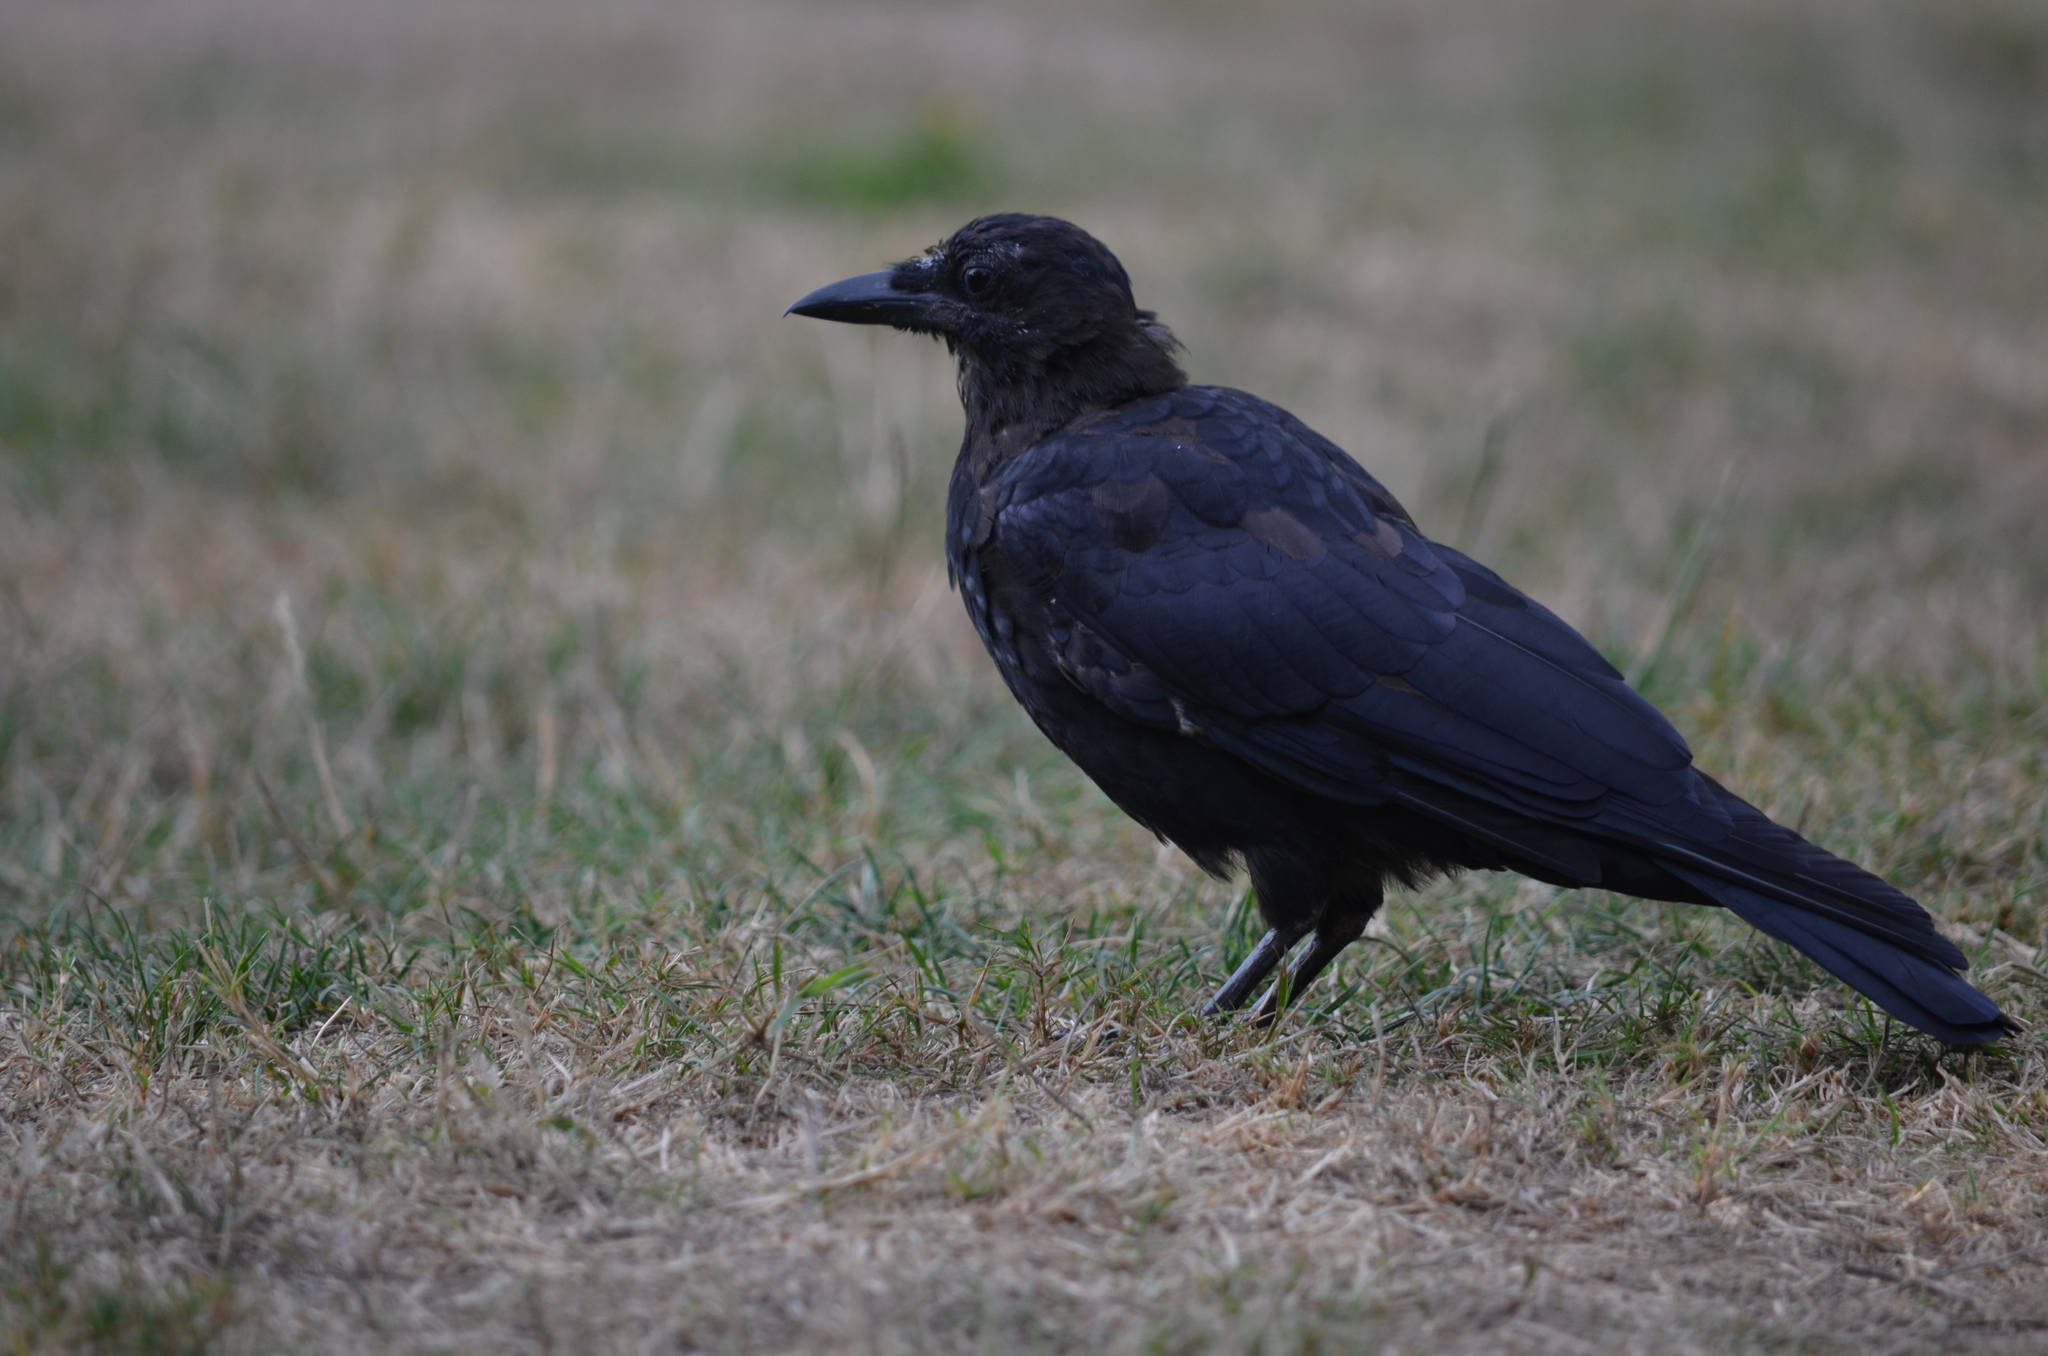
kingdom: Animalia
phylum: Chordata
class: Aves
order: Passeriformes
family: Corvidae
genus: Corvus
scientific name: Corvus brachyrhynchos
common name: American crow
